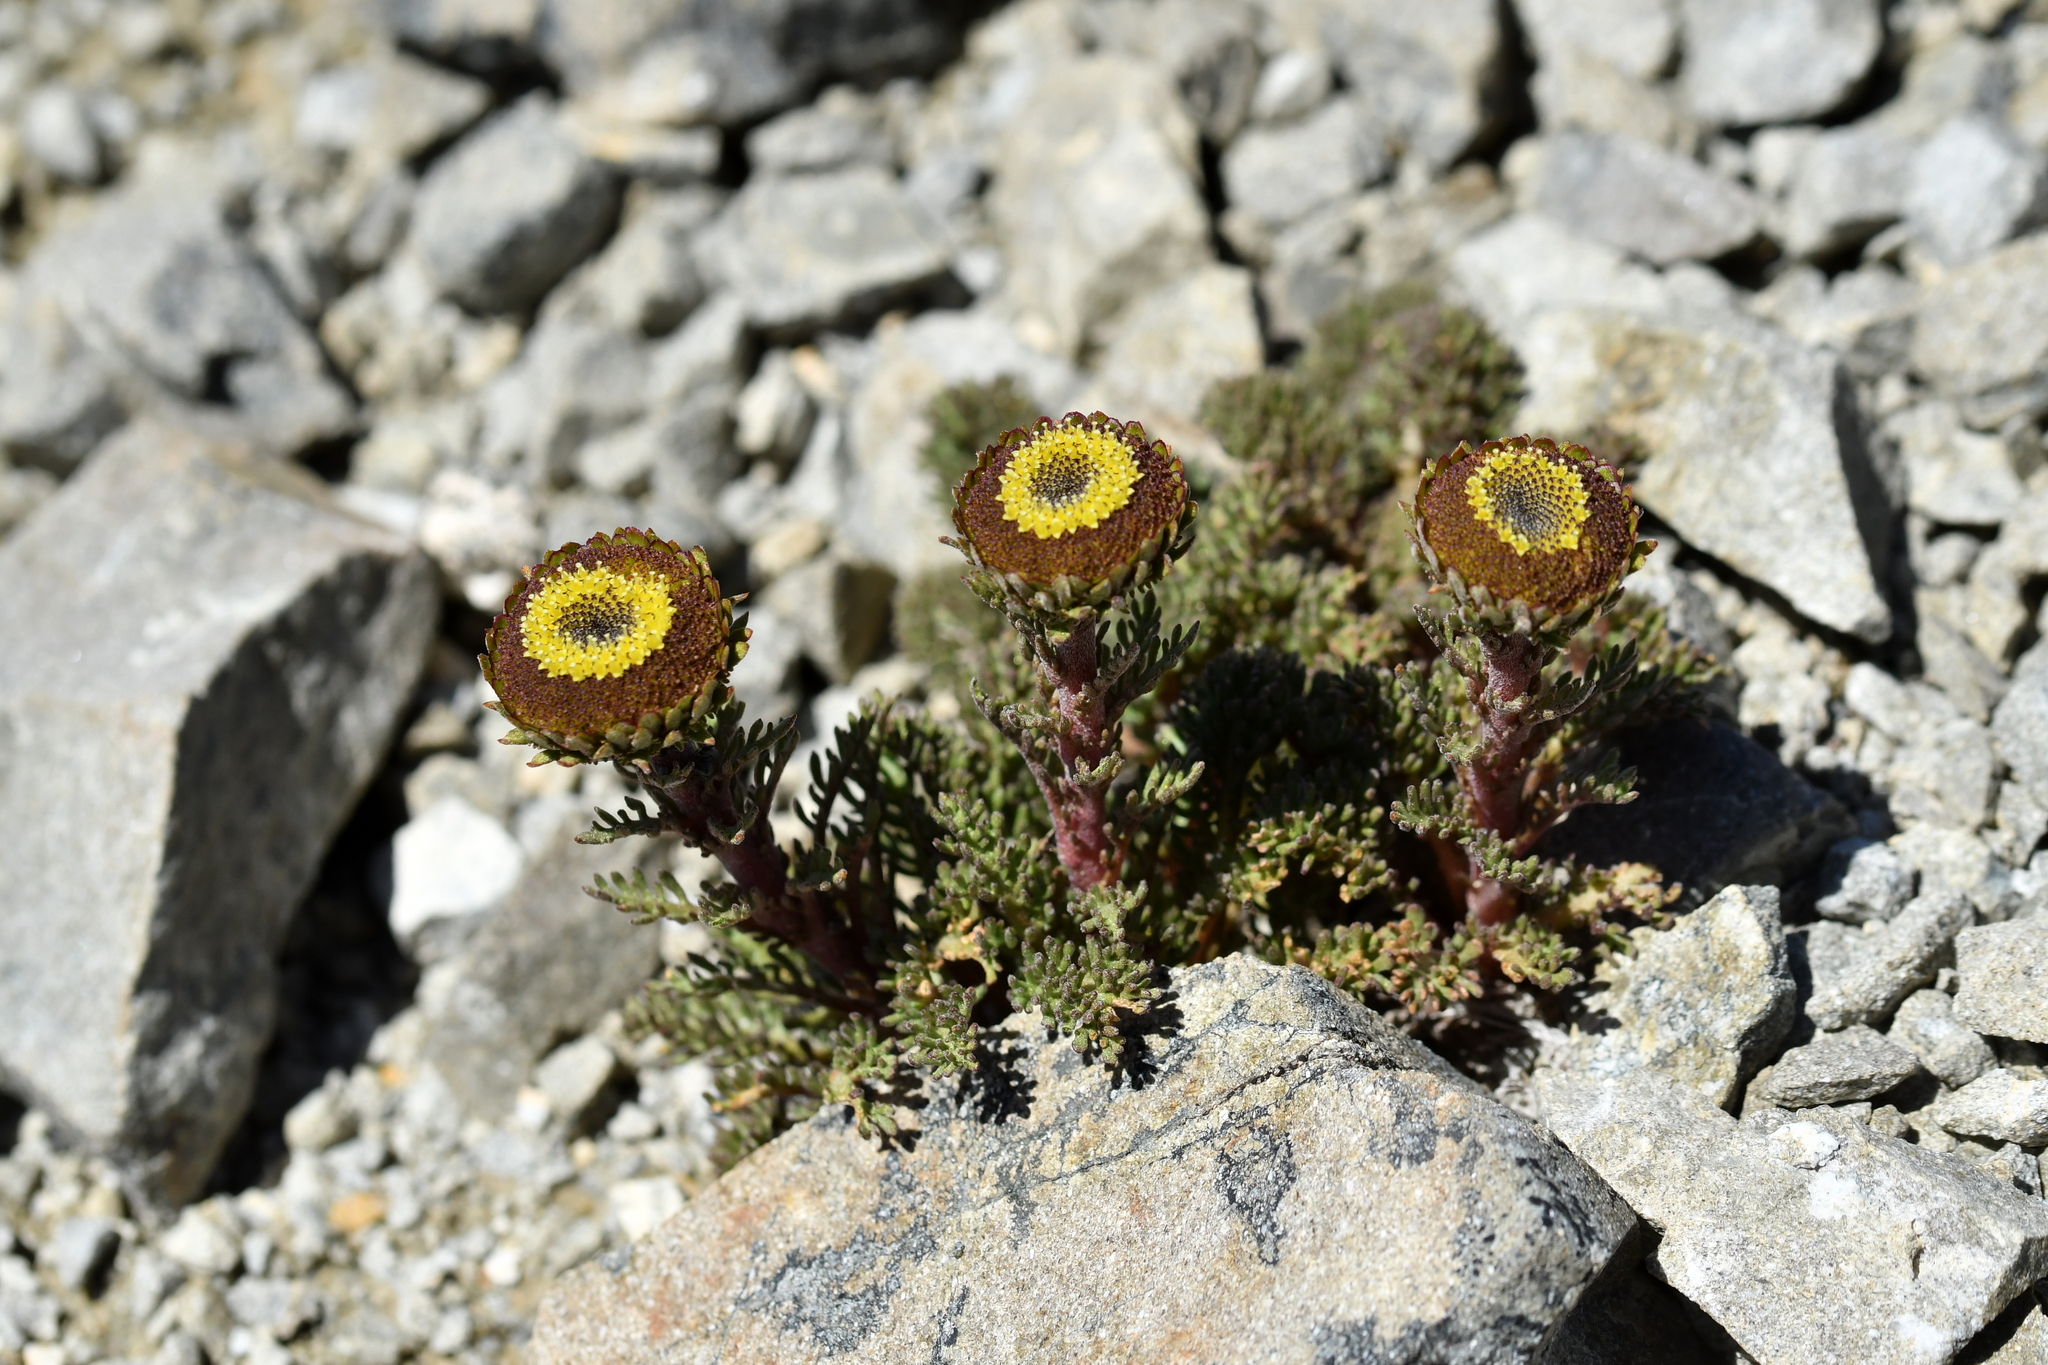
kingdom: Plantae
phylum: Tracheophyta
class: Magnoliopsida
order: Asterales
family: Asteraceae
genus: Leptinella
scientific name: Leptinella dendyi
